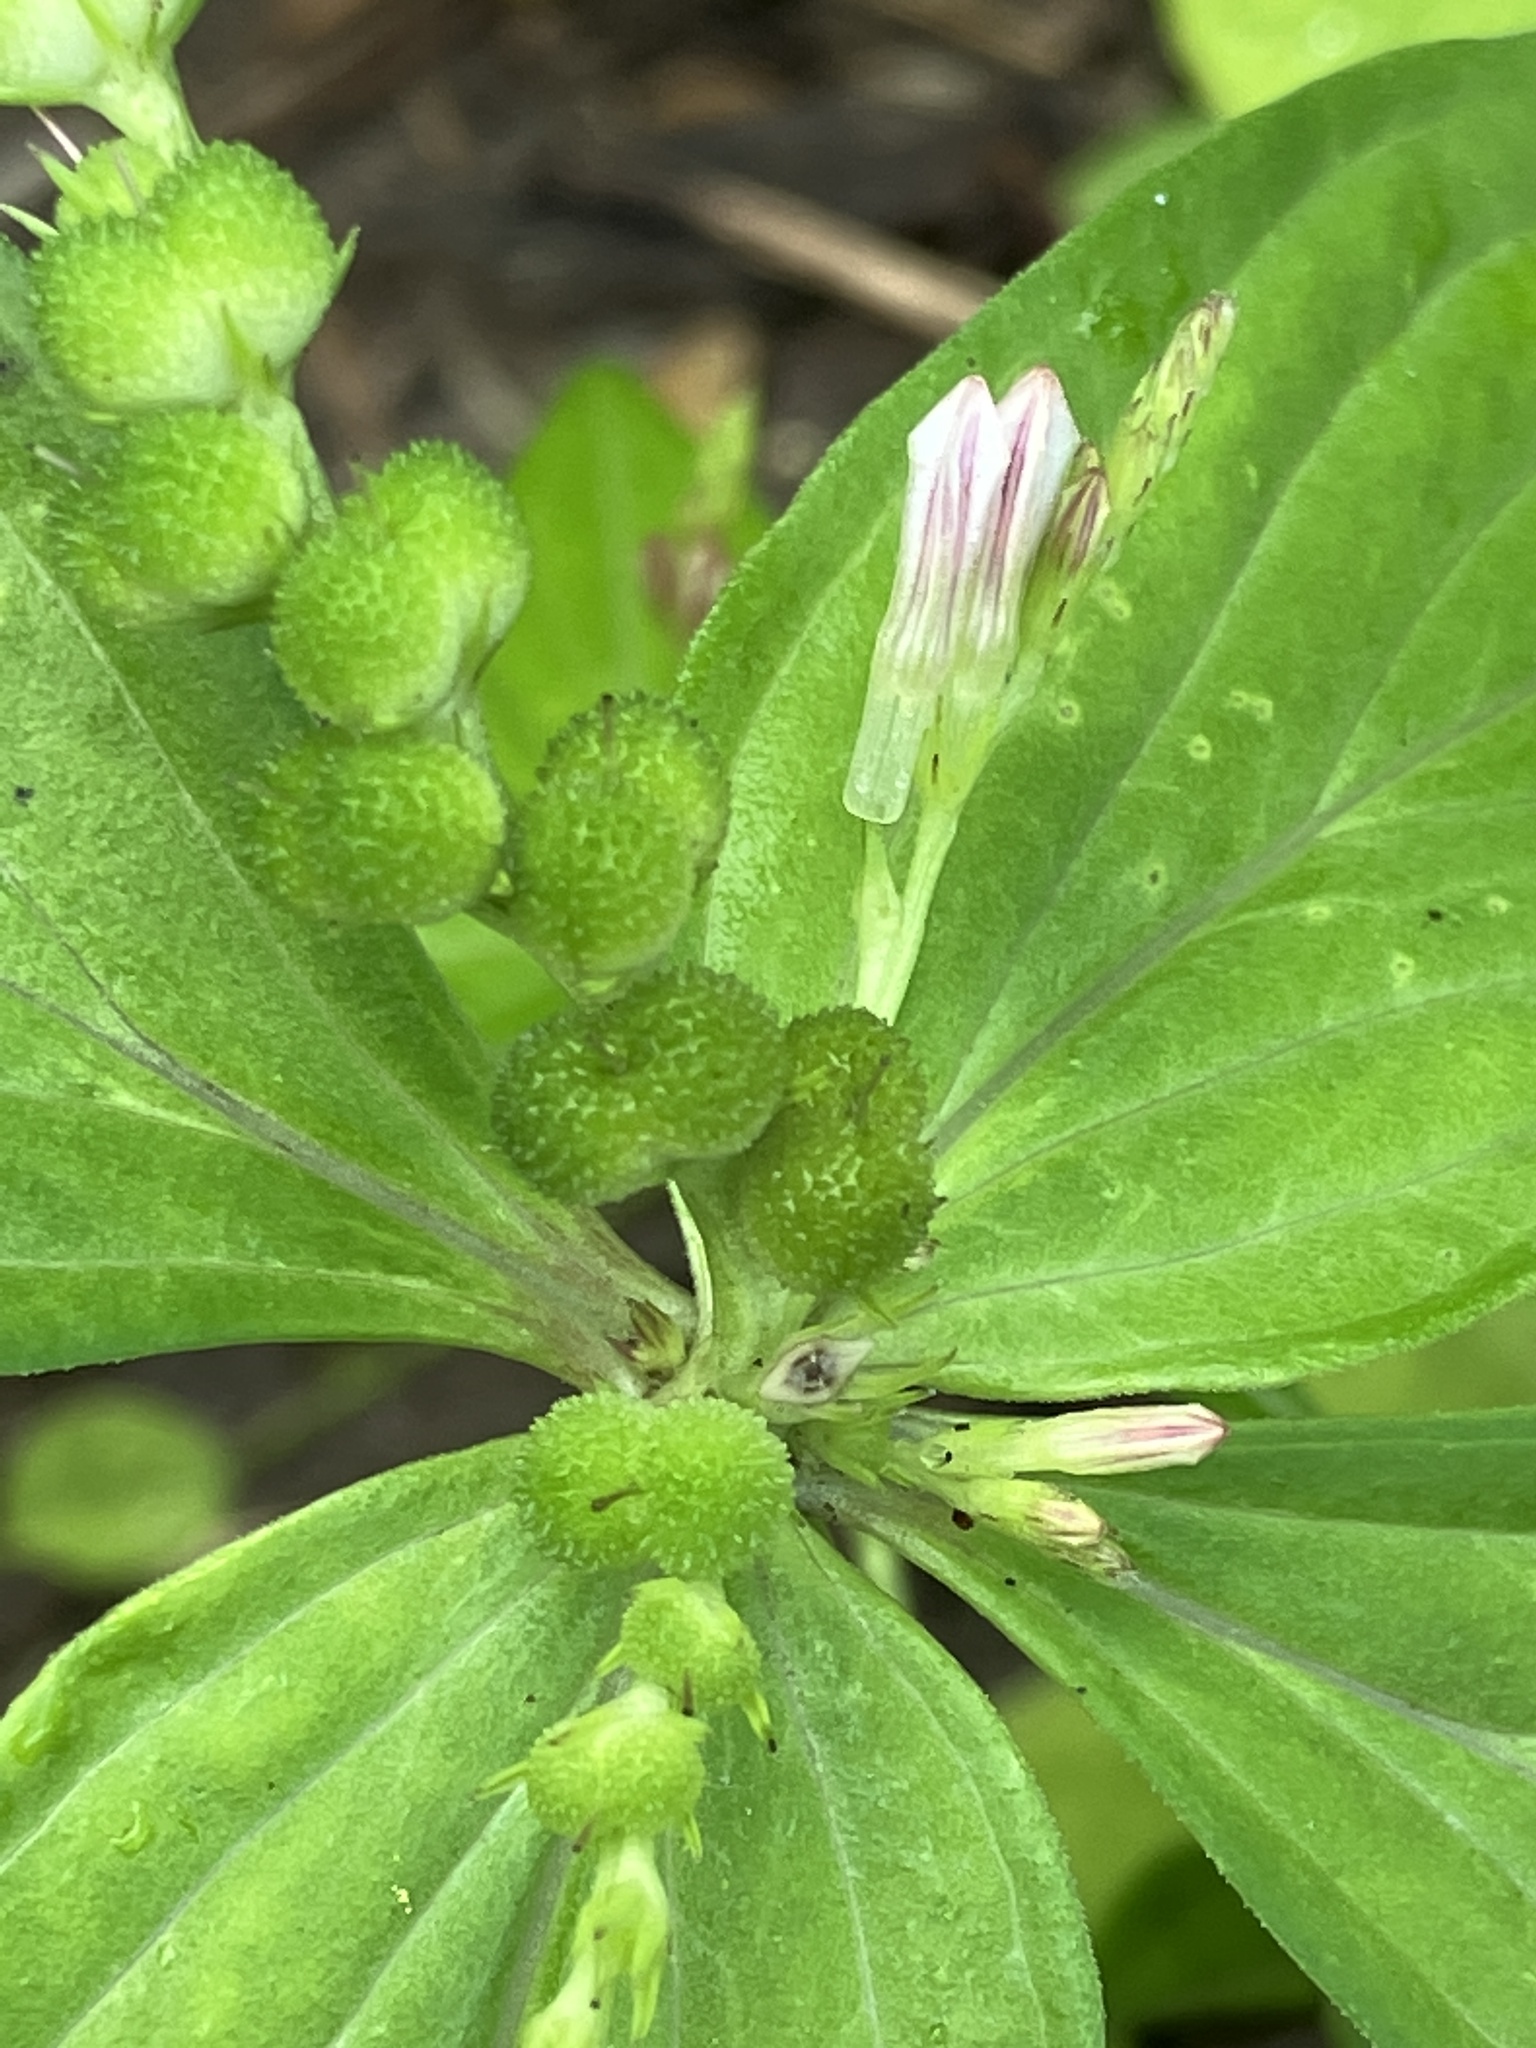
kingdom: Plantae
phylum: Tracheophyta
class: Magnoliopsida
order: Gentianales
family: Loganiaceae
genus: Spigelia
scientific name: Spigelia anthelmia
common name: West indian-pink
